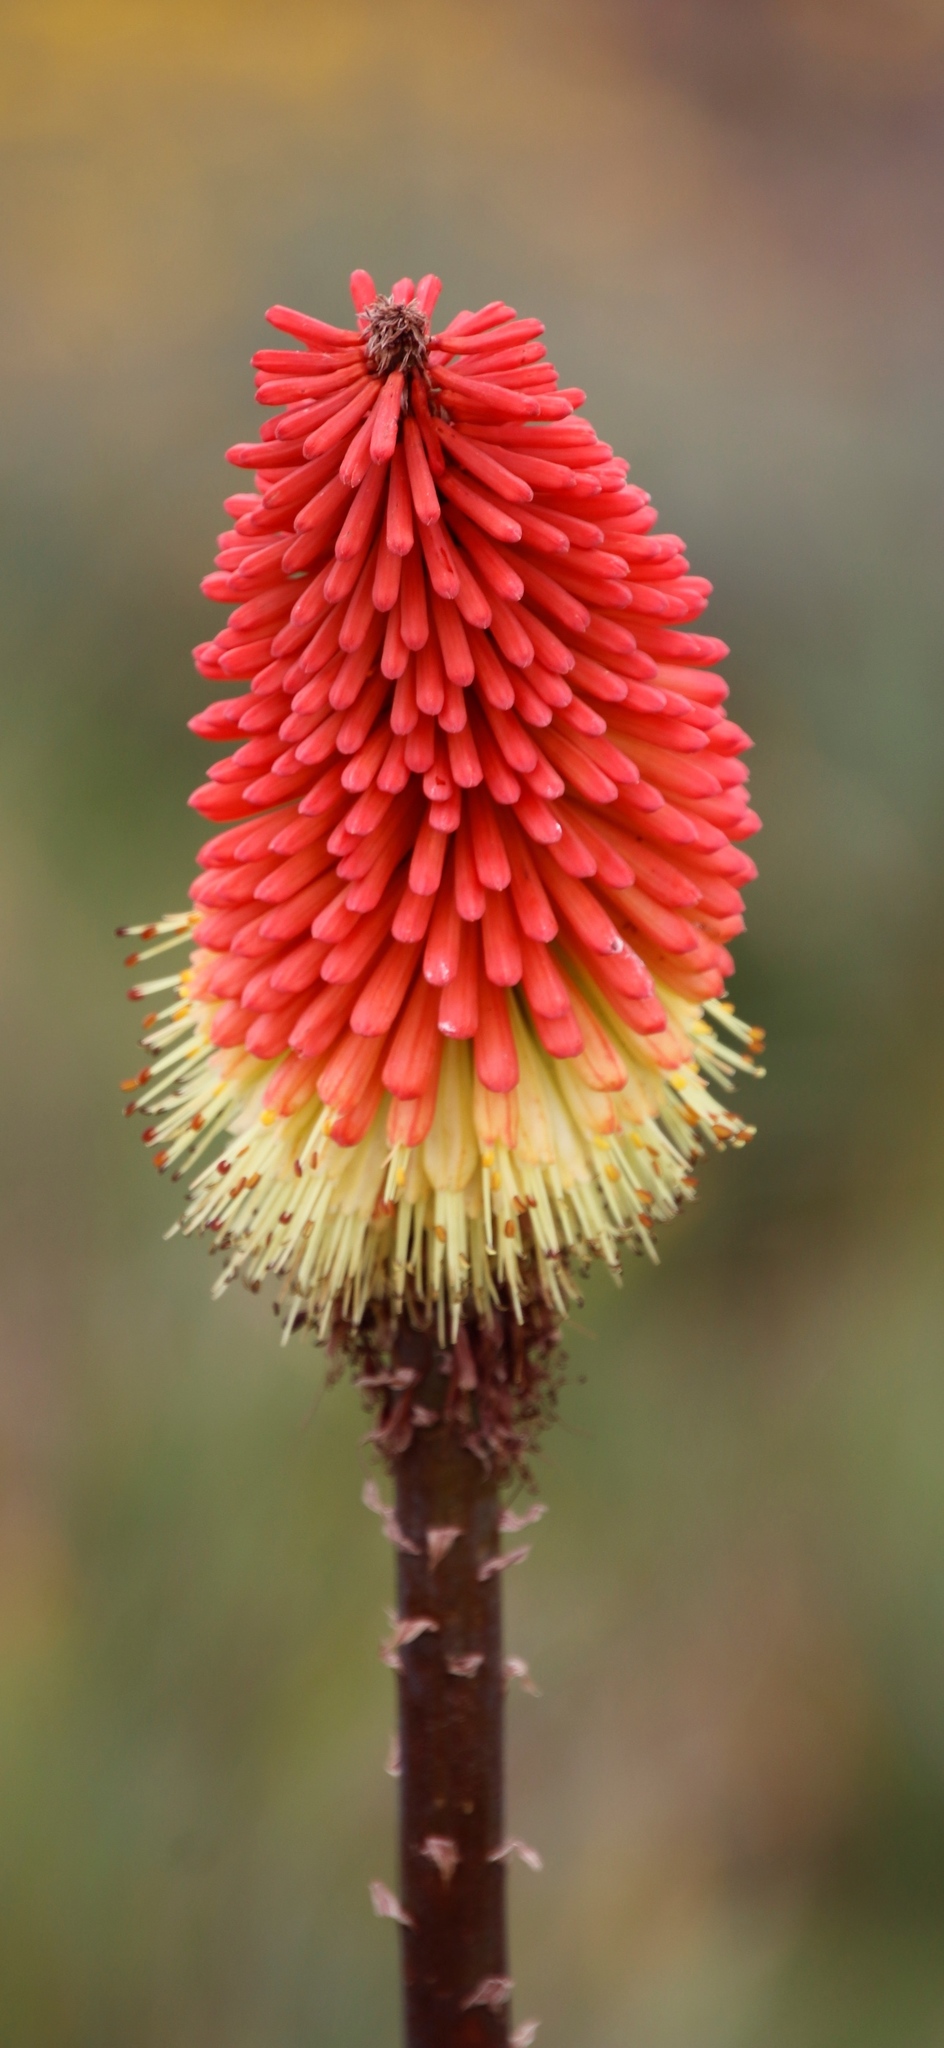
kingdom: Plantae
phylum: Tracheophyta
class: Liliopsida
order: Asparagales
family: Asphodelaceae
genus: Kniphofia
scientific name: Kniphofia caulescens
